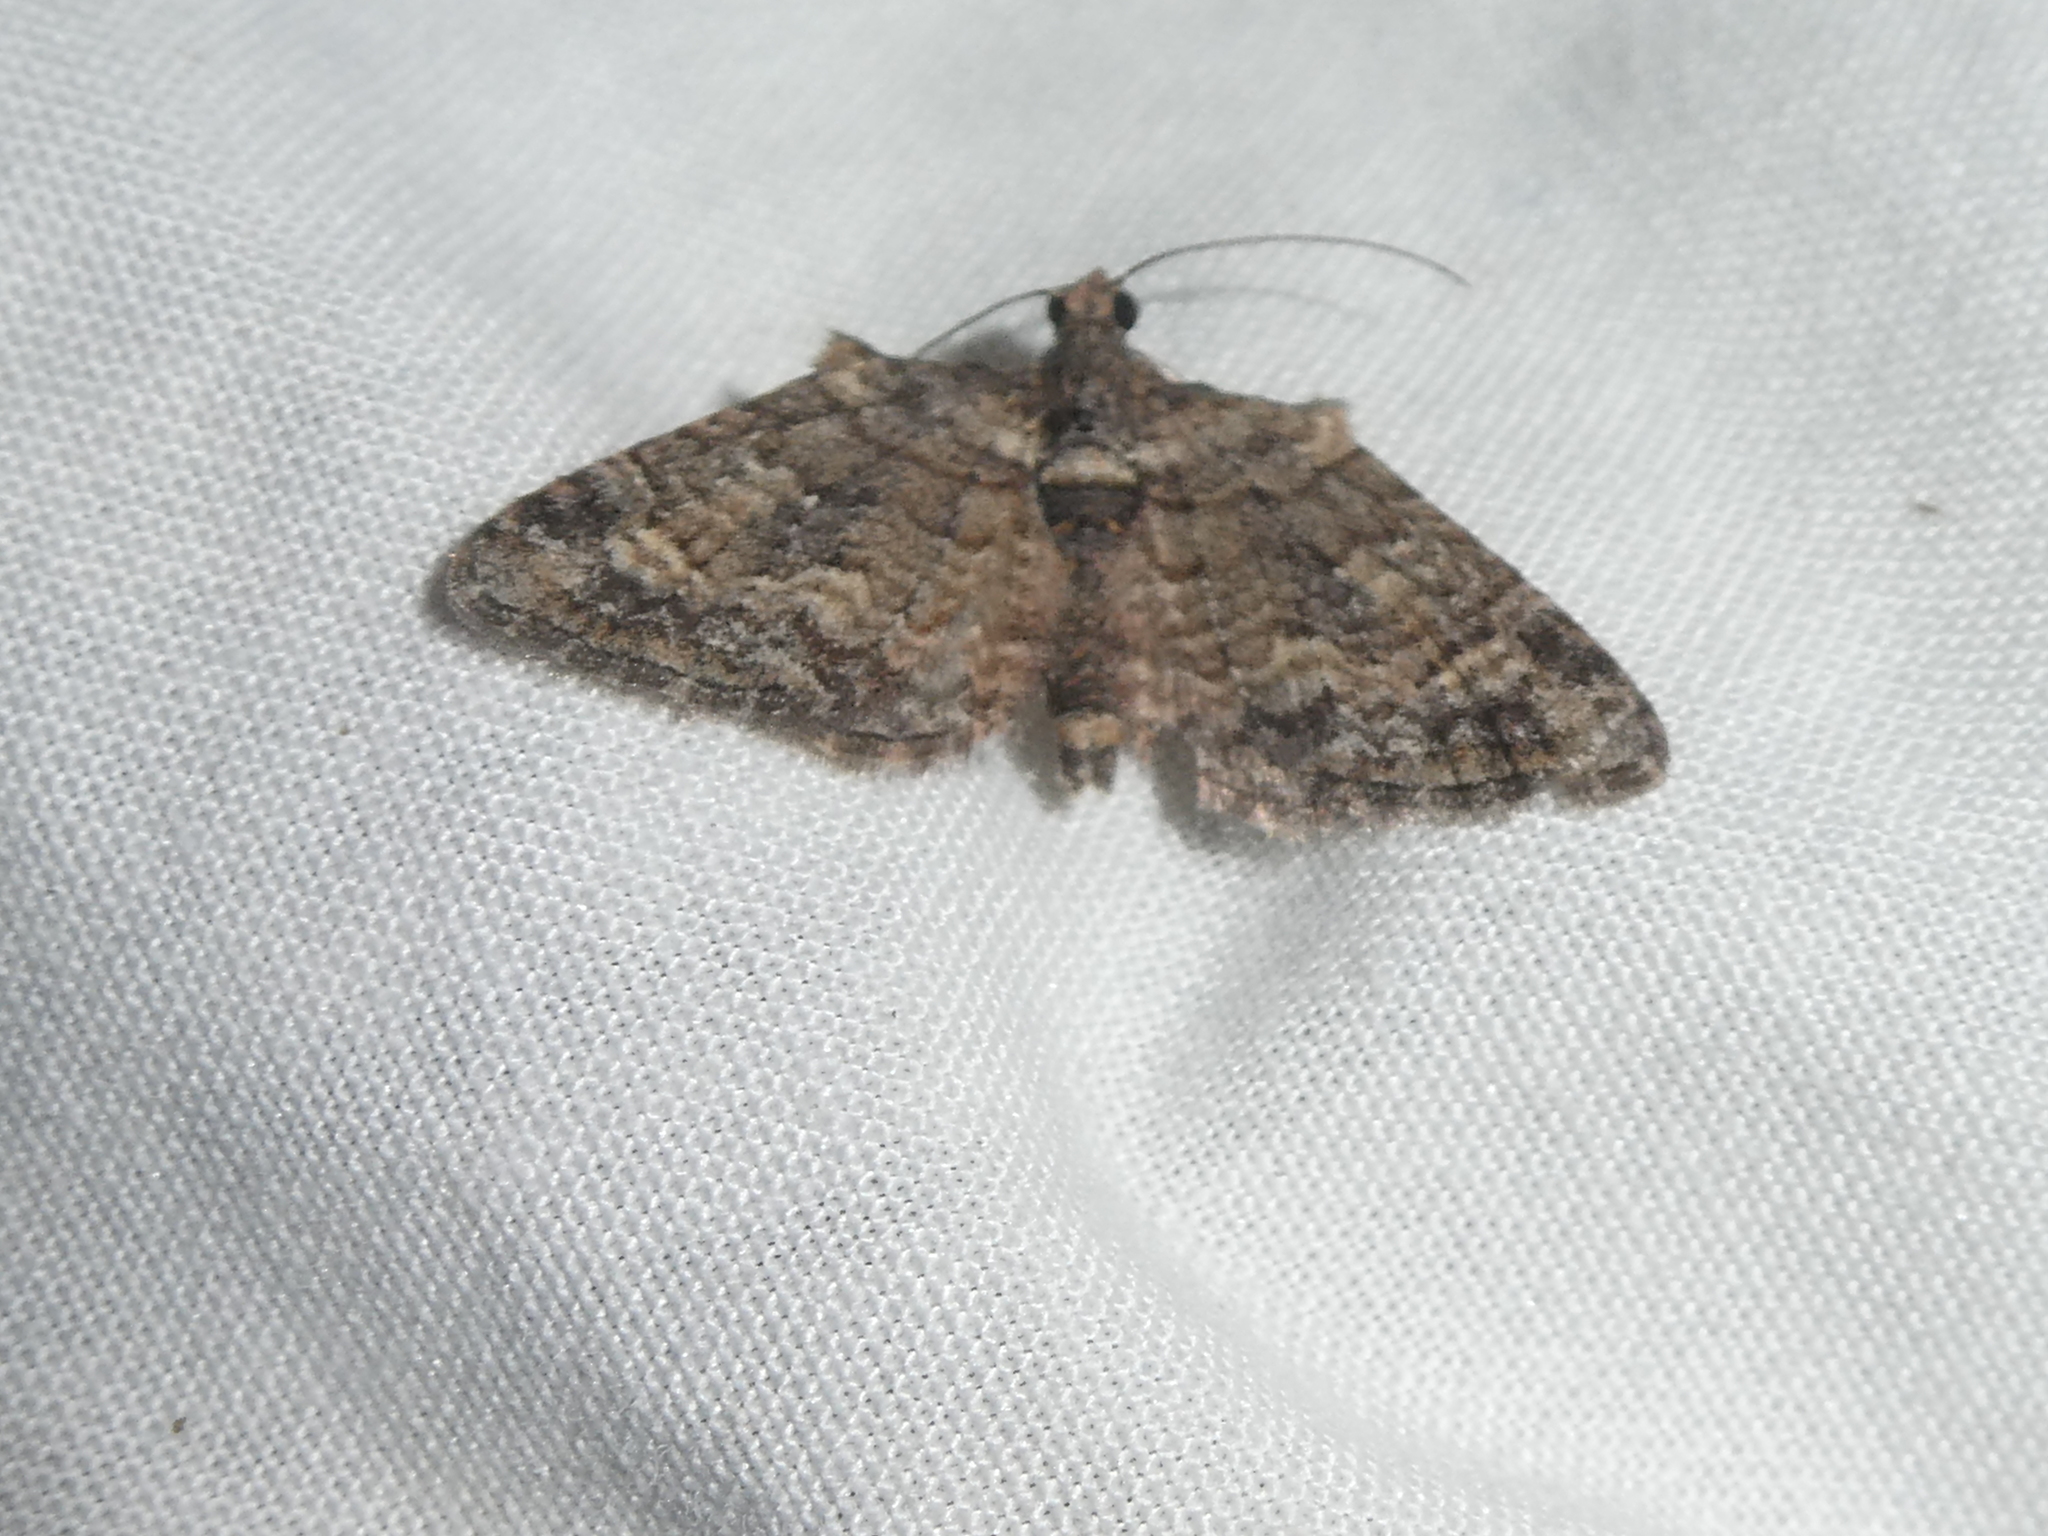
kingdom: Animalia
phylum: Arthropoda
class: Insecta
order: Lepidoptera
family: Geometridae
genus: Phrissogonus
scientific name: Phrissogonus laticostata
